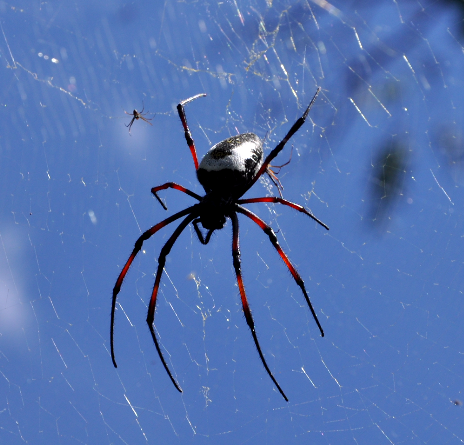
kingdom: Animalia
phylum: Arthropoda
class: Arachnida
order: Araneae
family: Araneidae
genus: Trichonephila
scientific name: Trichonephila inaurata
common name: Red-legged golden orb weaver
